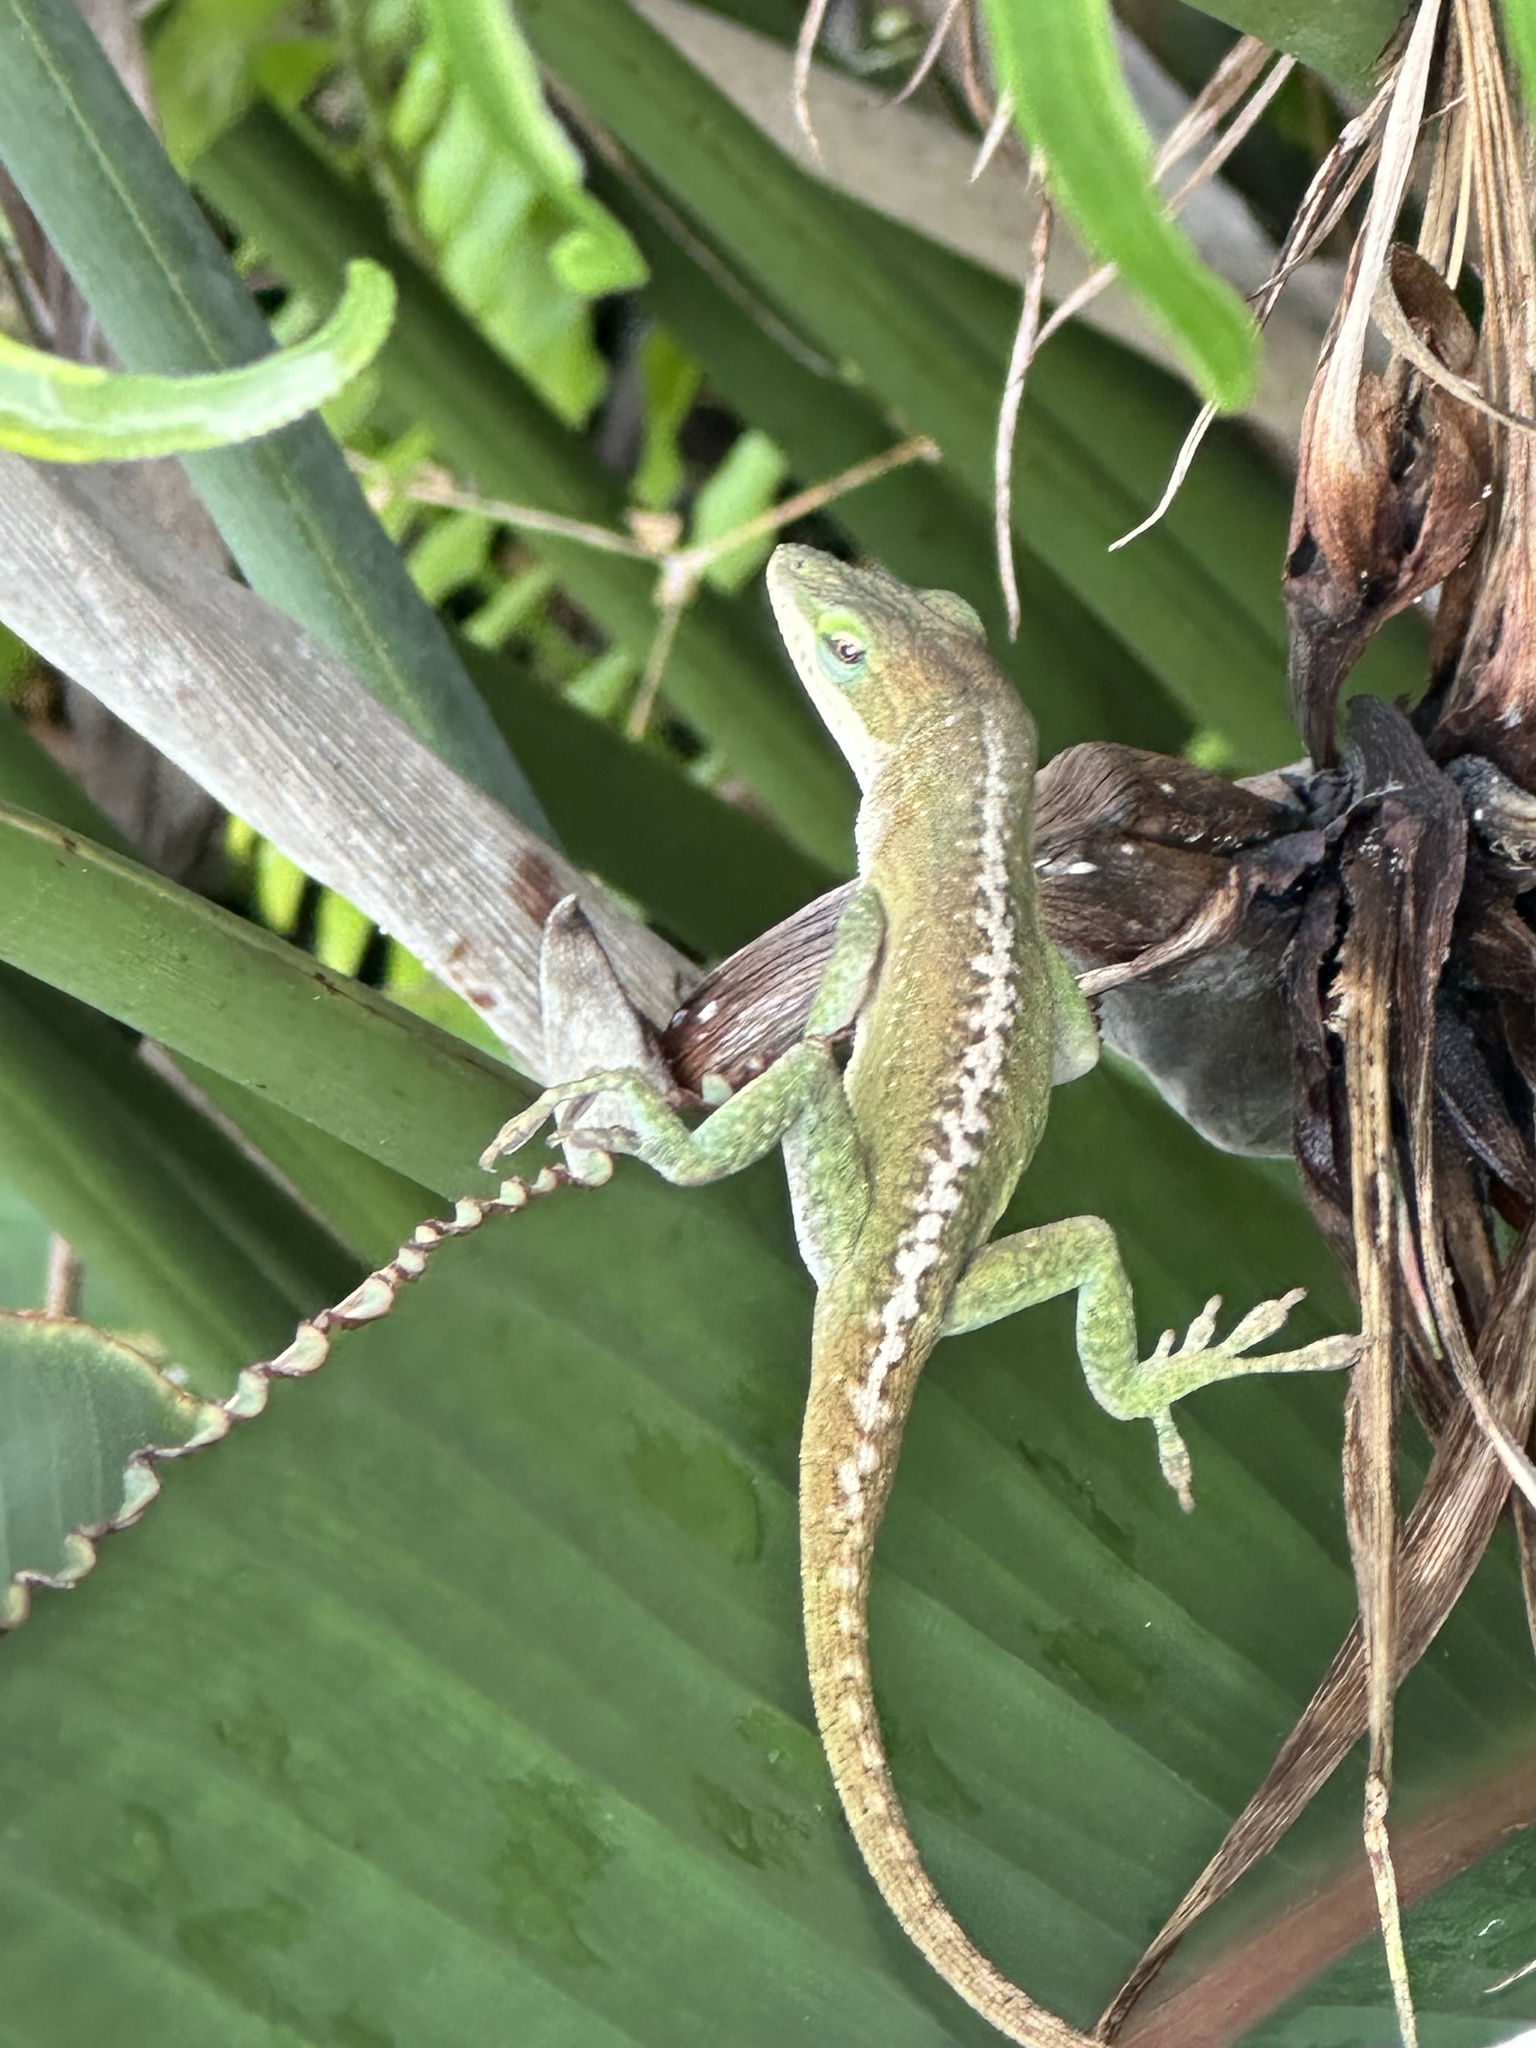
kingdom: Animalia
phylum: Chordata
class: Squamata
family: Dactyloidae
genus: Anolis
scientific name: Anolis carolinensis
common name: Green anole
